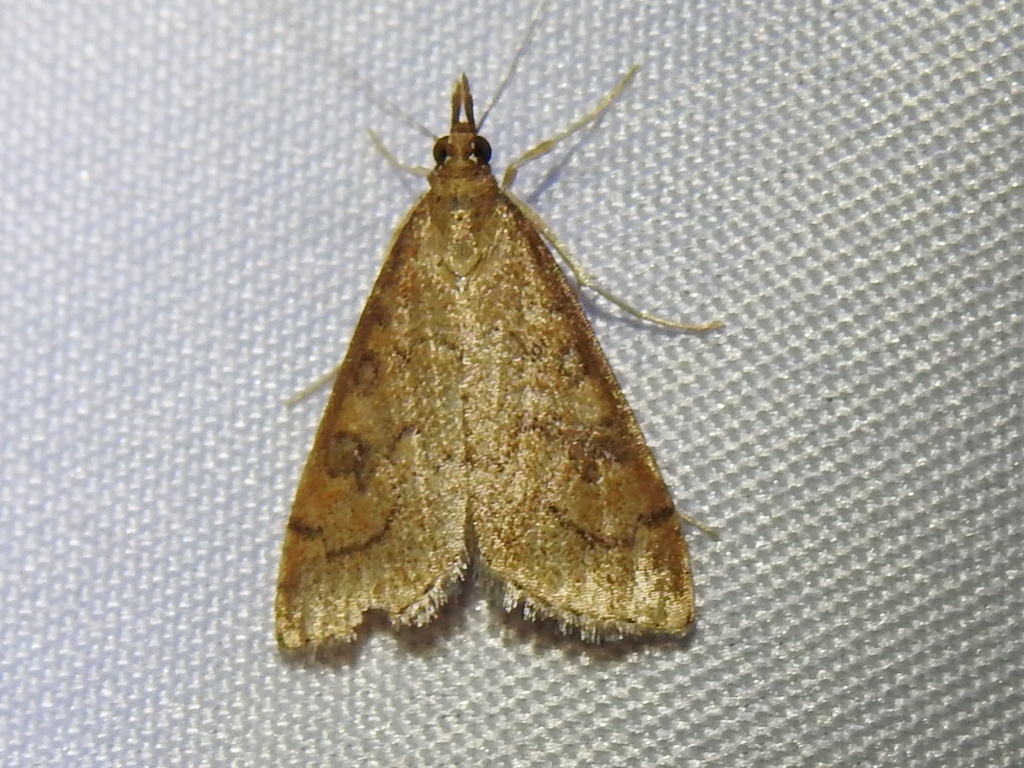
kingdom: Animalia
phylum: Arthropoda
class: Insecta
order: Lepidoptera
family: Crambidae
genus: Udea
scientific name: Udea rubigalis
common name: Celery leaftier moth
